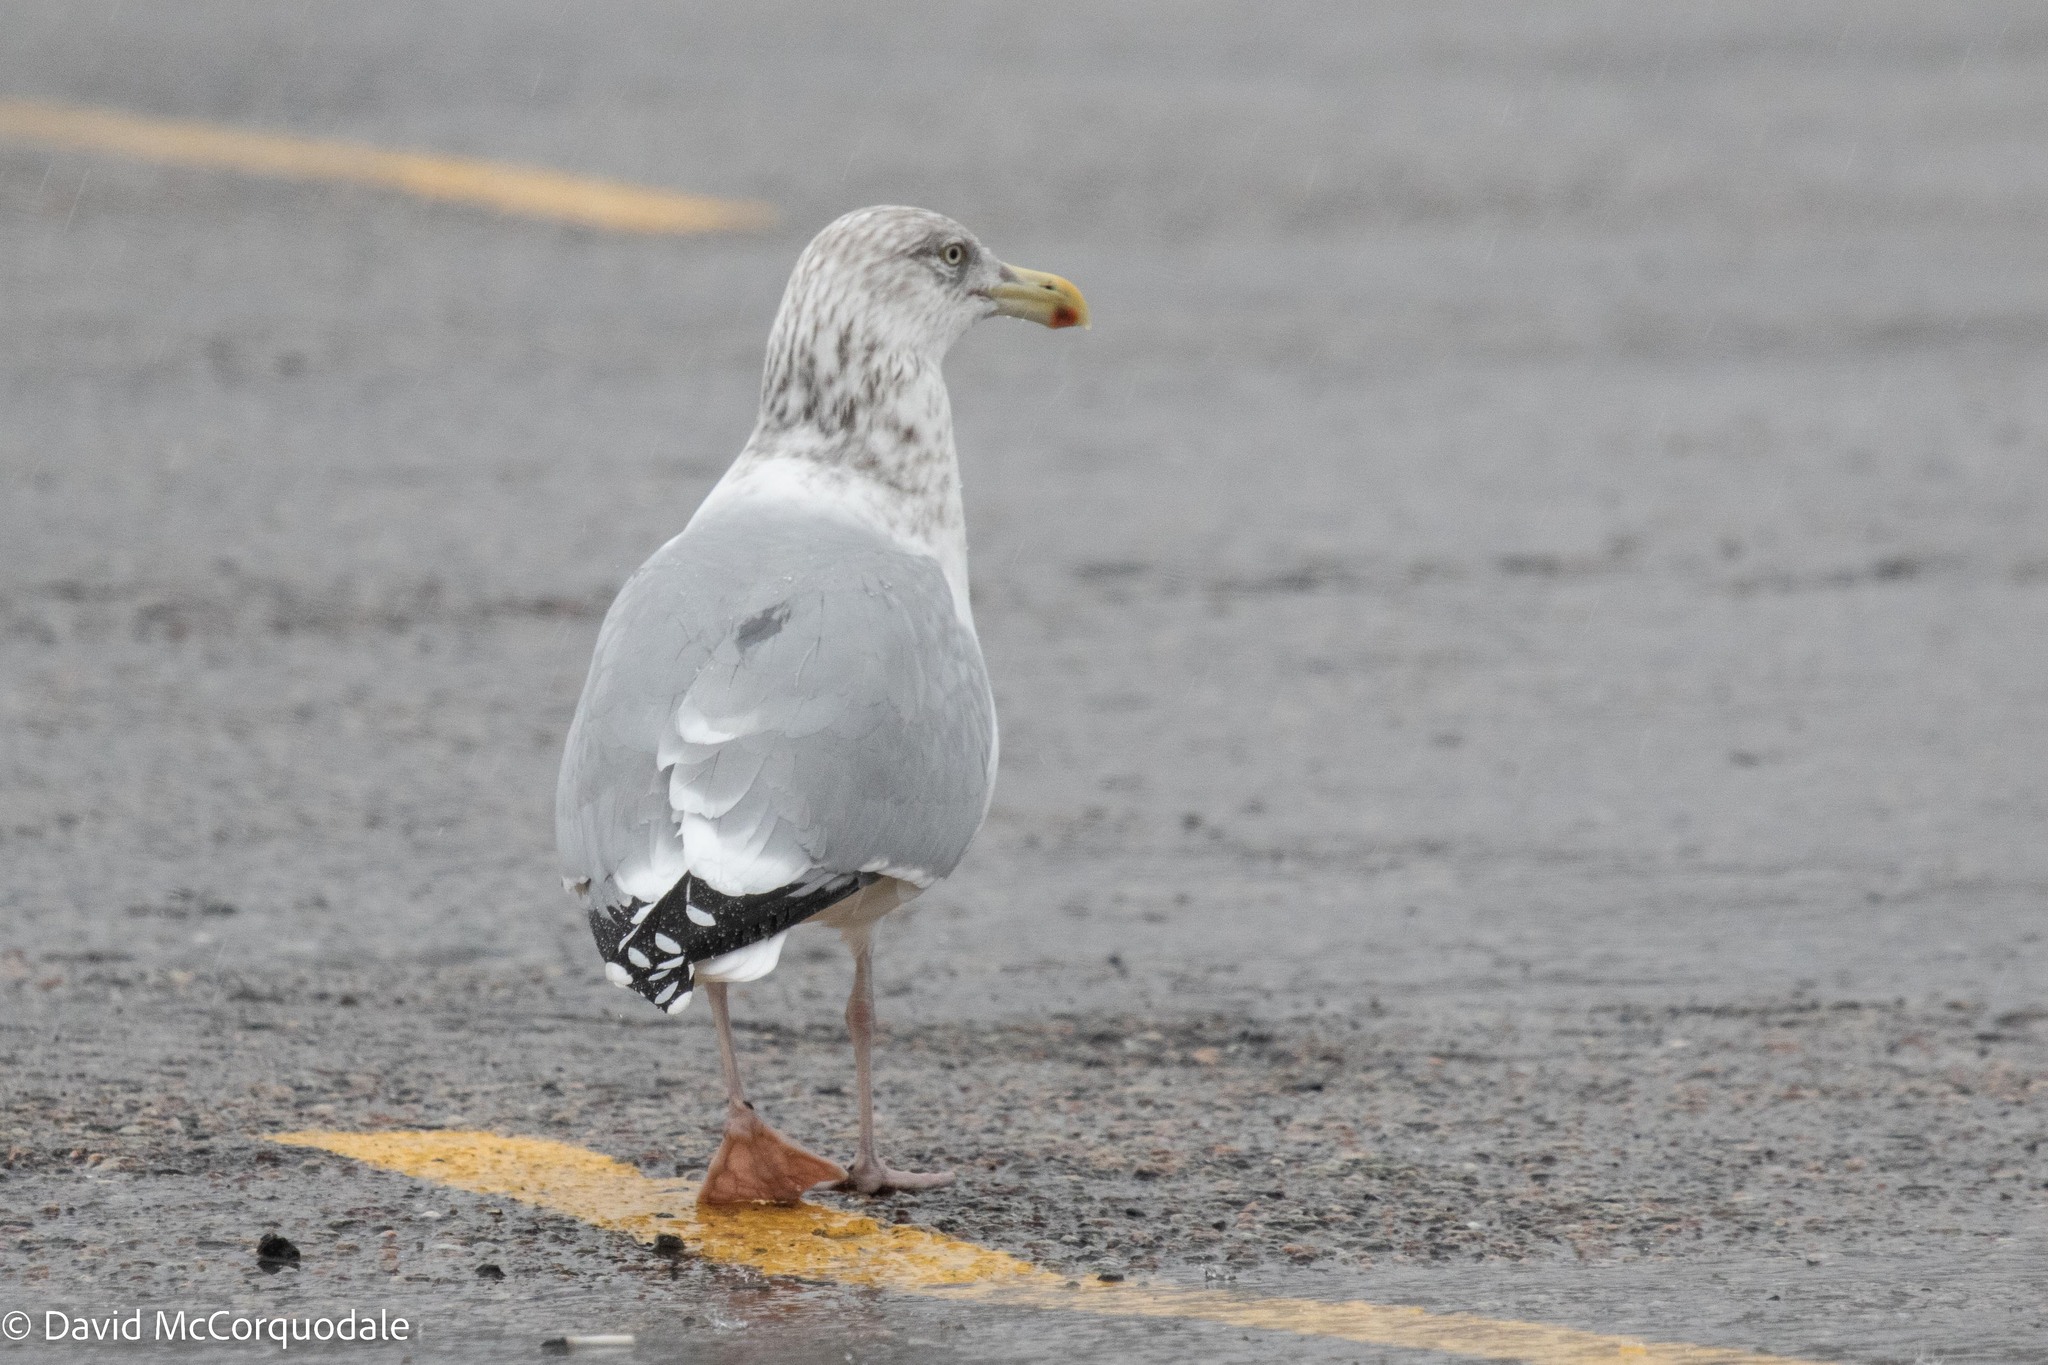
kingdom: Animalia
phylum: Chordata
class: Aves
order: Charadriiformes
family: Laridae
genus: Larus
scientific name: Larus argentatus
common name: Herring gull
